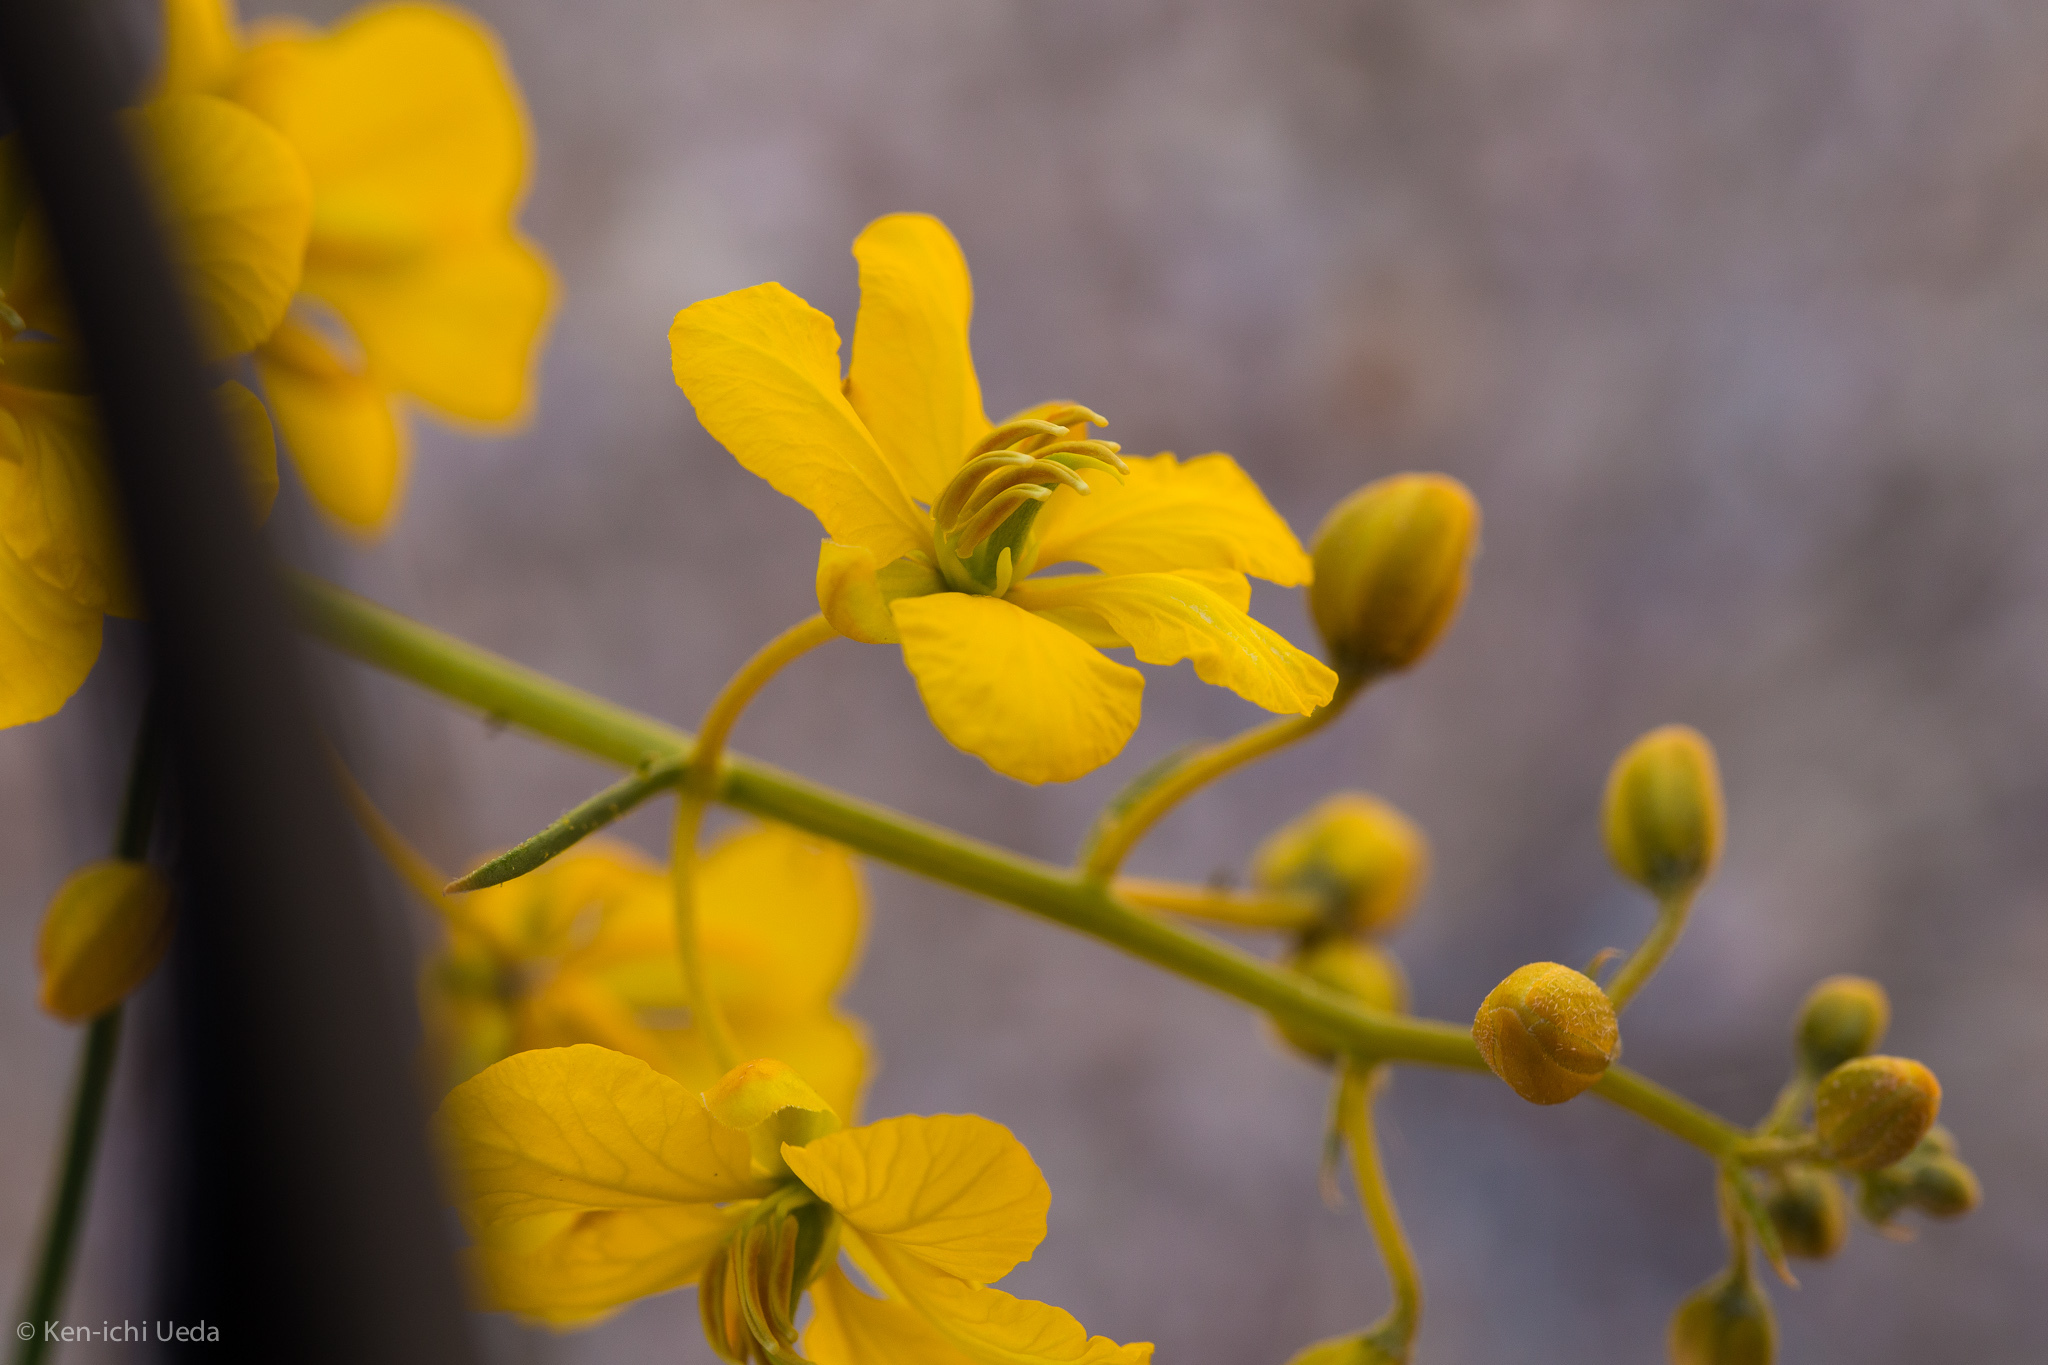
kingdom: Plantae
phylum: Tracheophyta
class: Magnoliopsida
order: Fabales
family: Fabaceae
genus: Senna
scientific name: Senna armata
